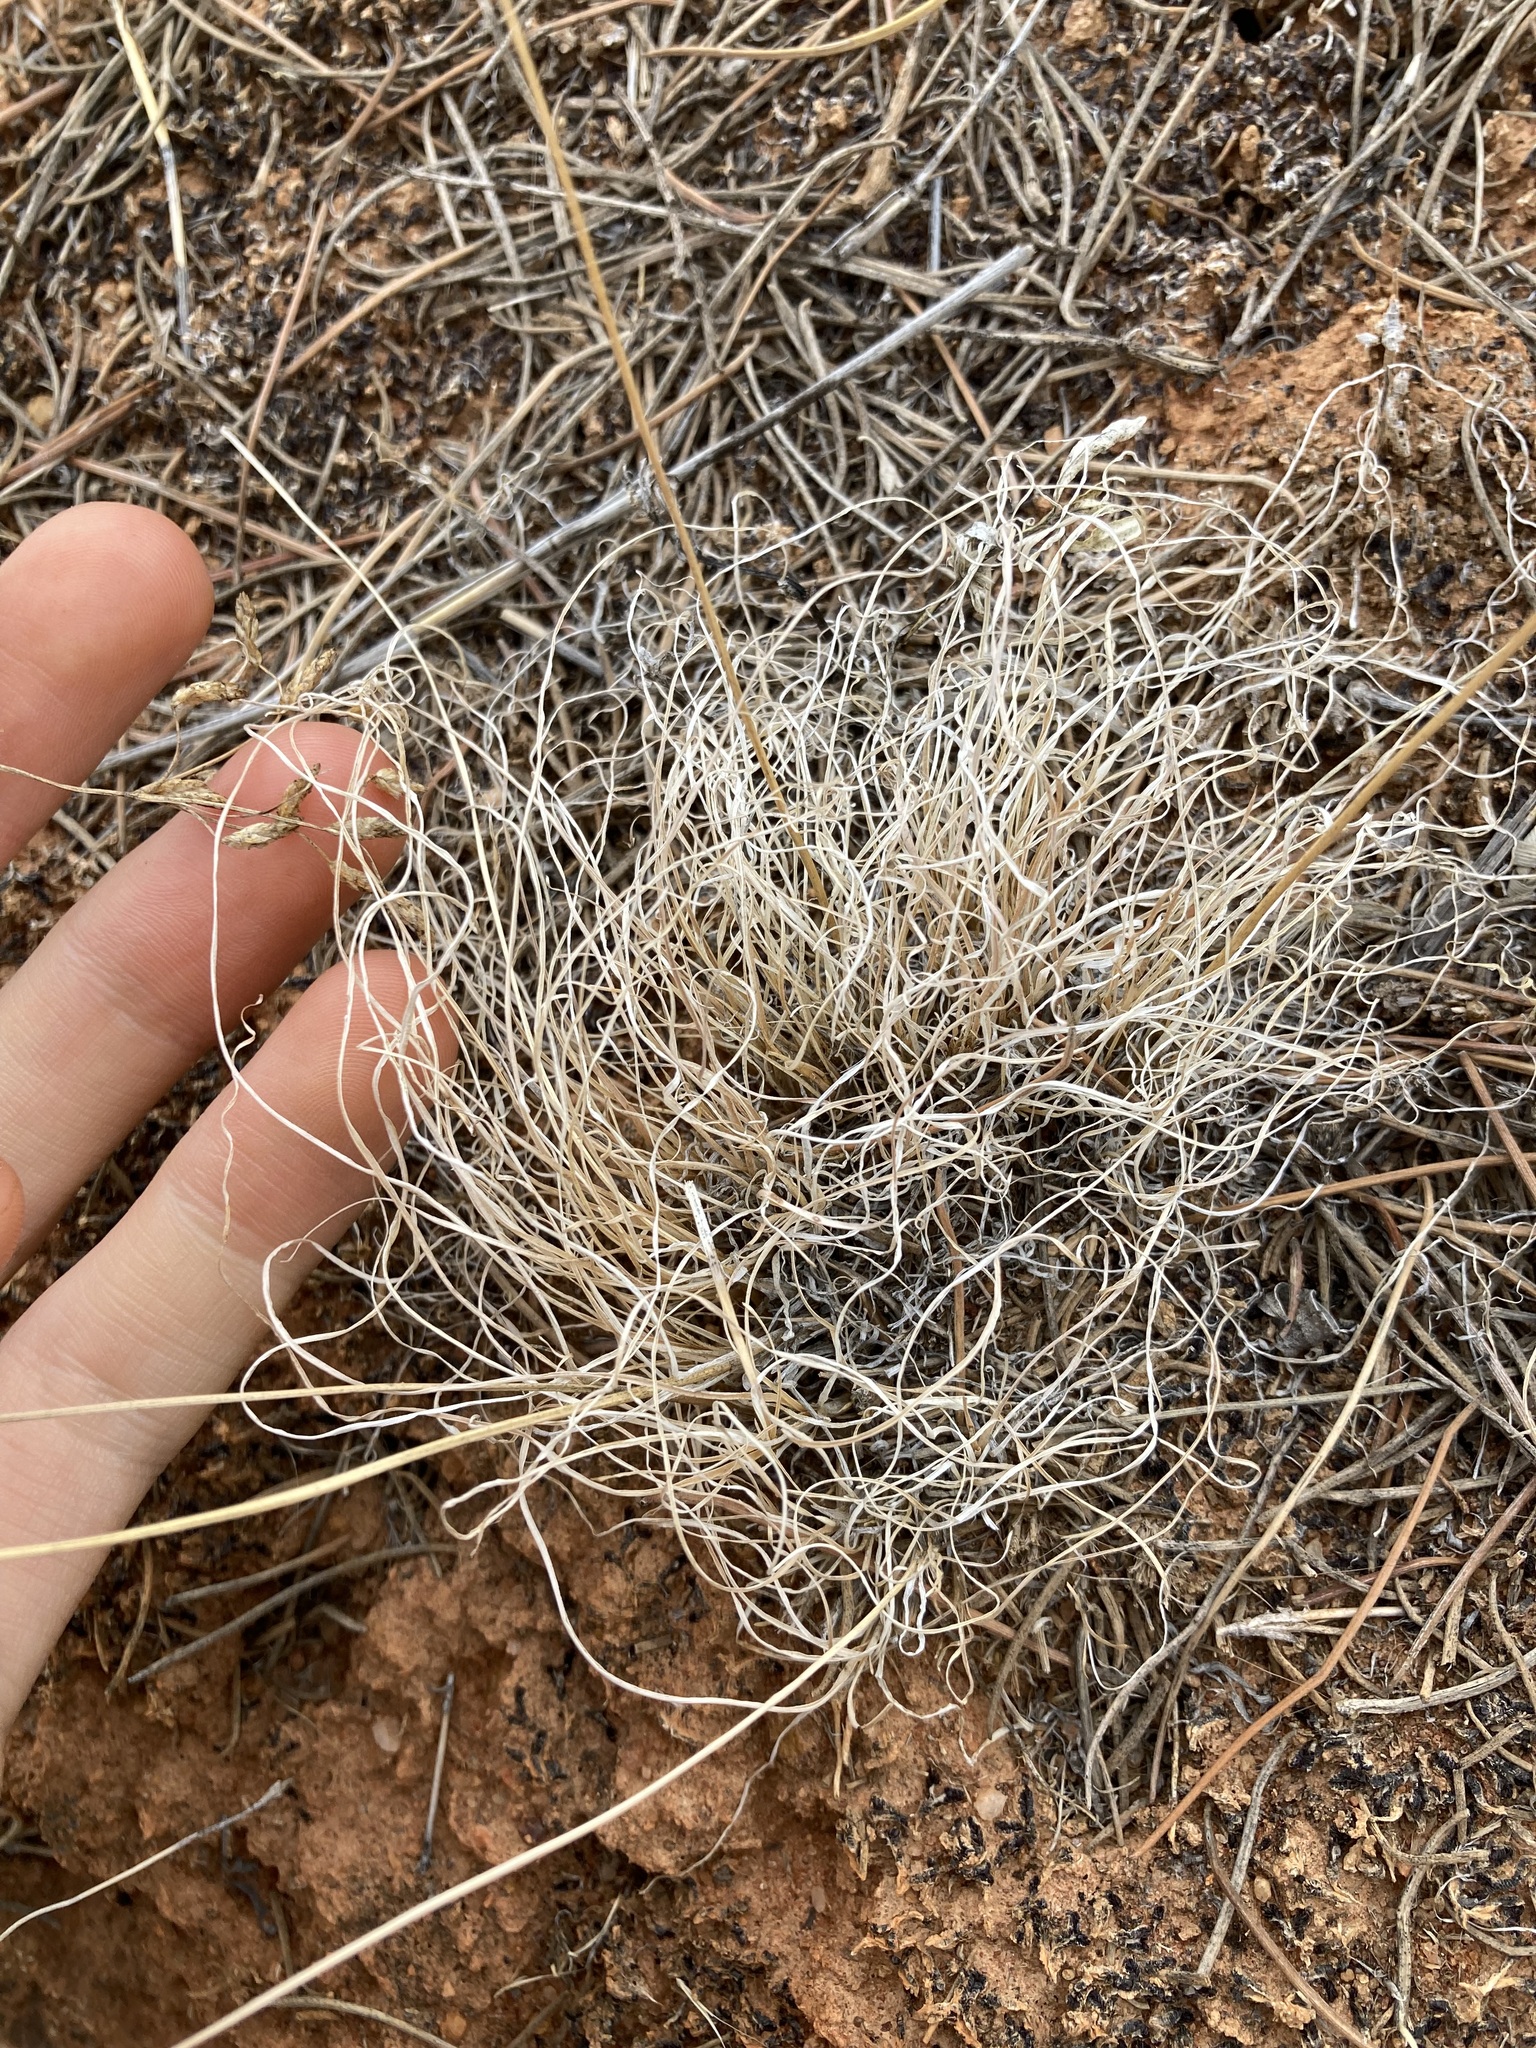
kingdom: Plantae
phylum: Tracheophyta
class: Liliopsida
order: Poales
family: Cyperaceae
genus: Fimbristylis
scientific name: Fimbristylis dichotoma
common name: Forked fimbry
